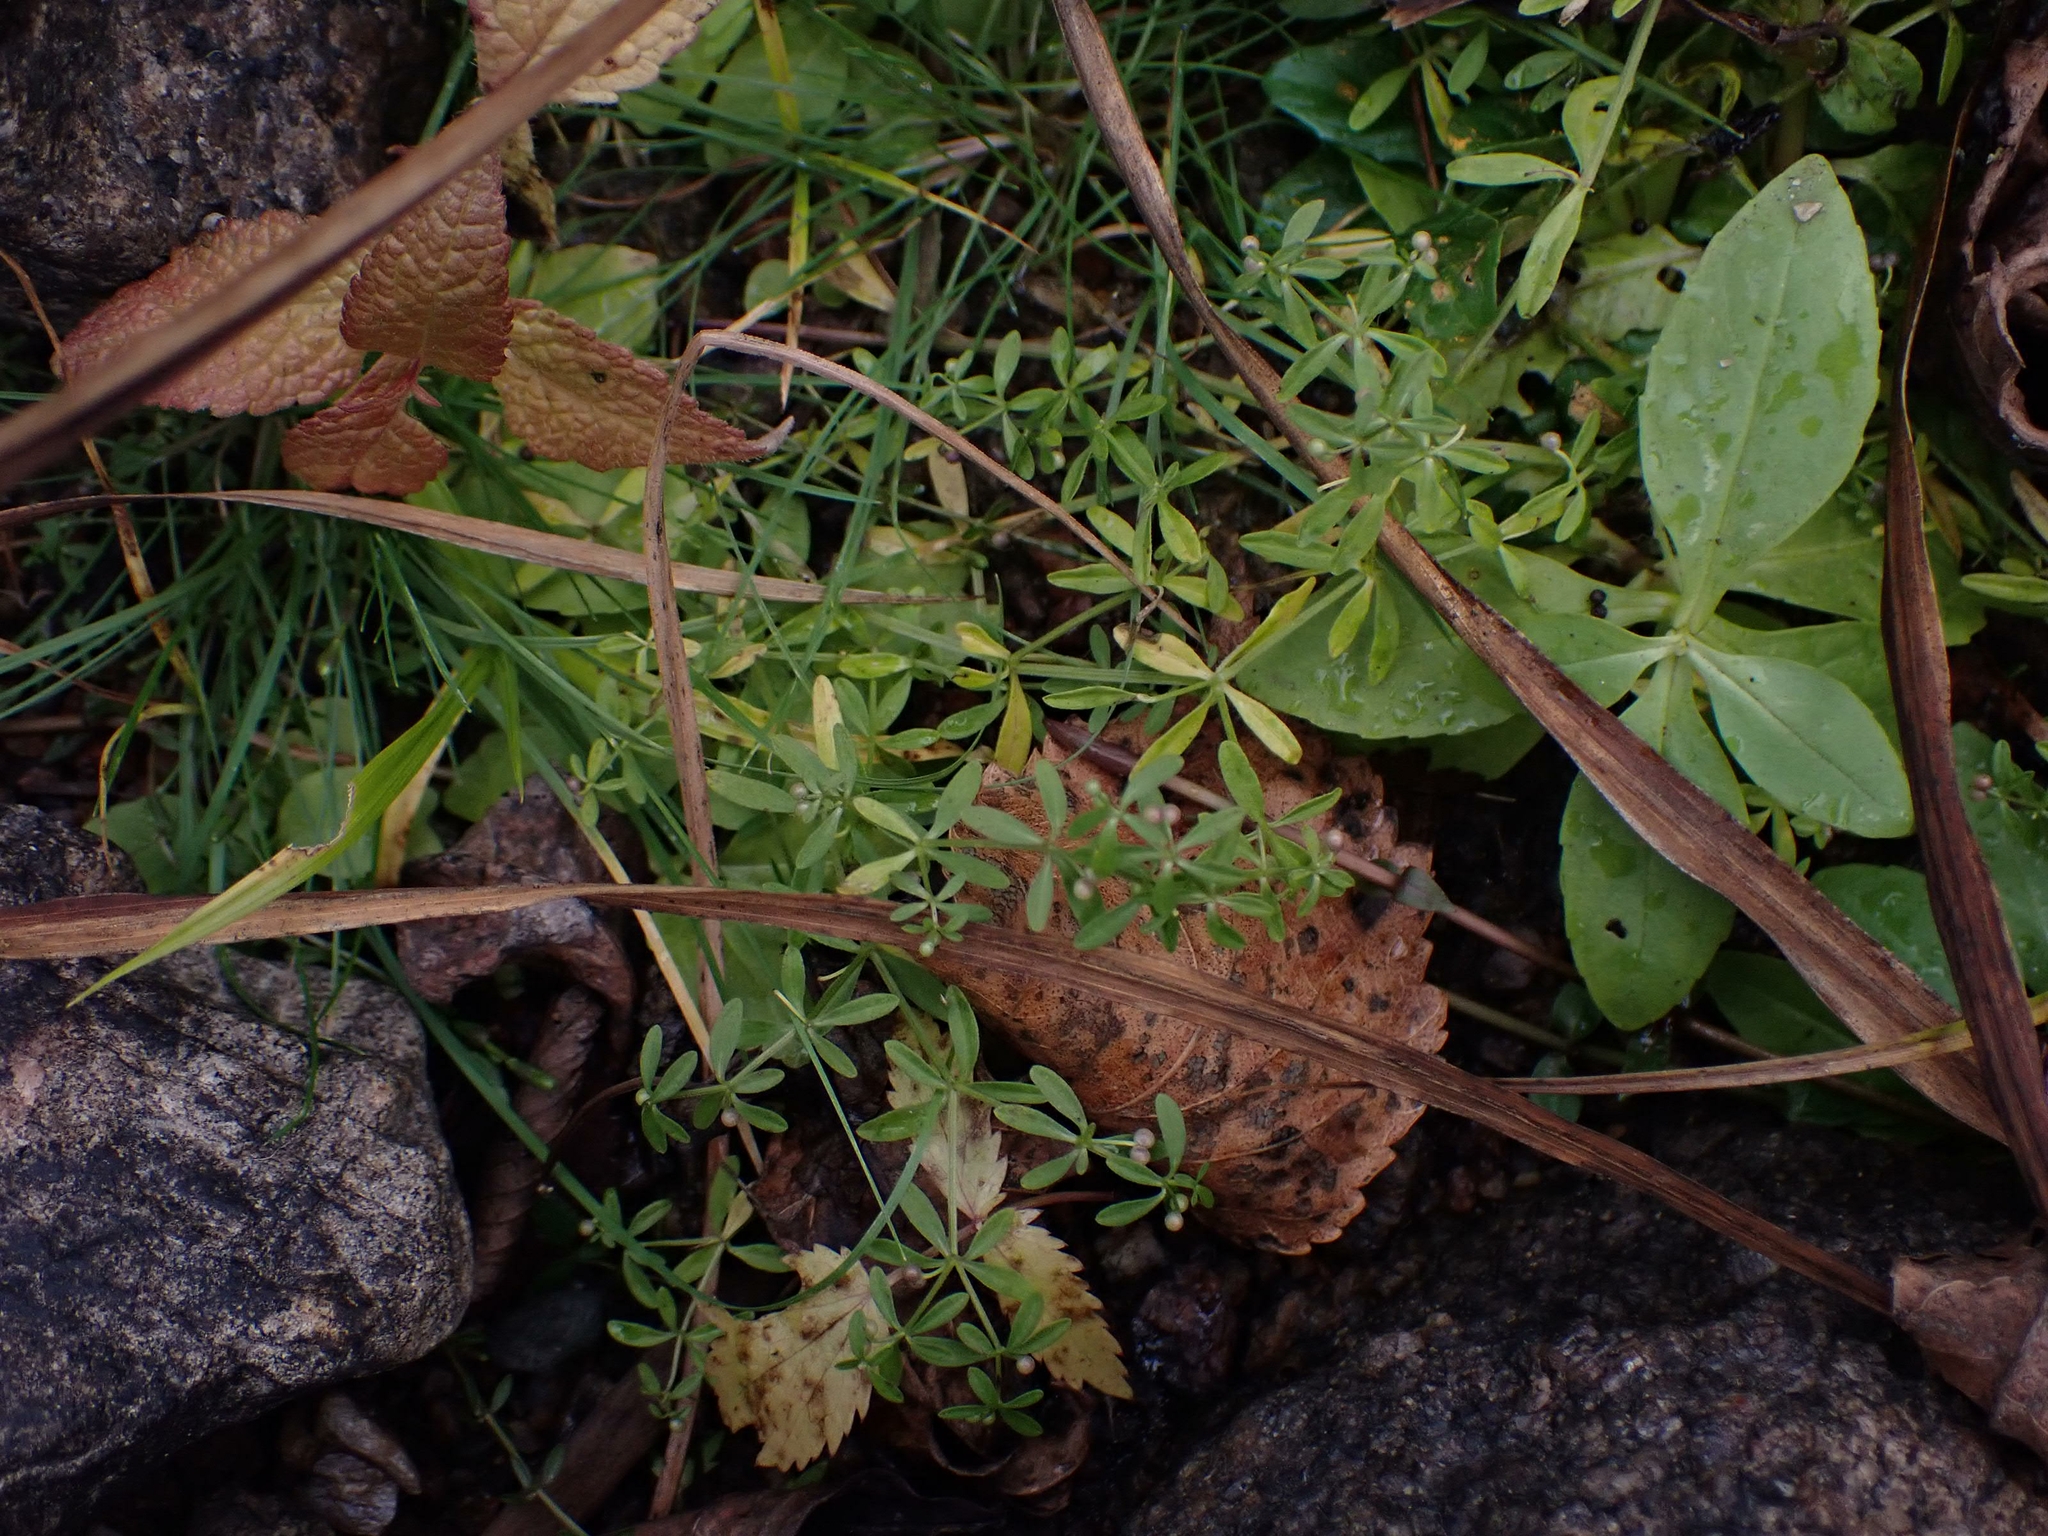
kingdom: Plantae
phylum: Tracheophyta
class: Magnoliopsida
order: Gentianales
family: Rubiaceae
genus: Galium
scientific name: Galium trifidum
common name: Small bedstraw
